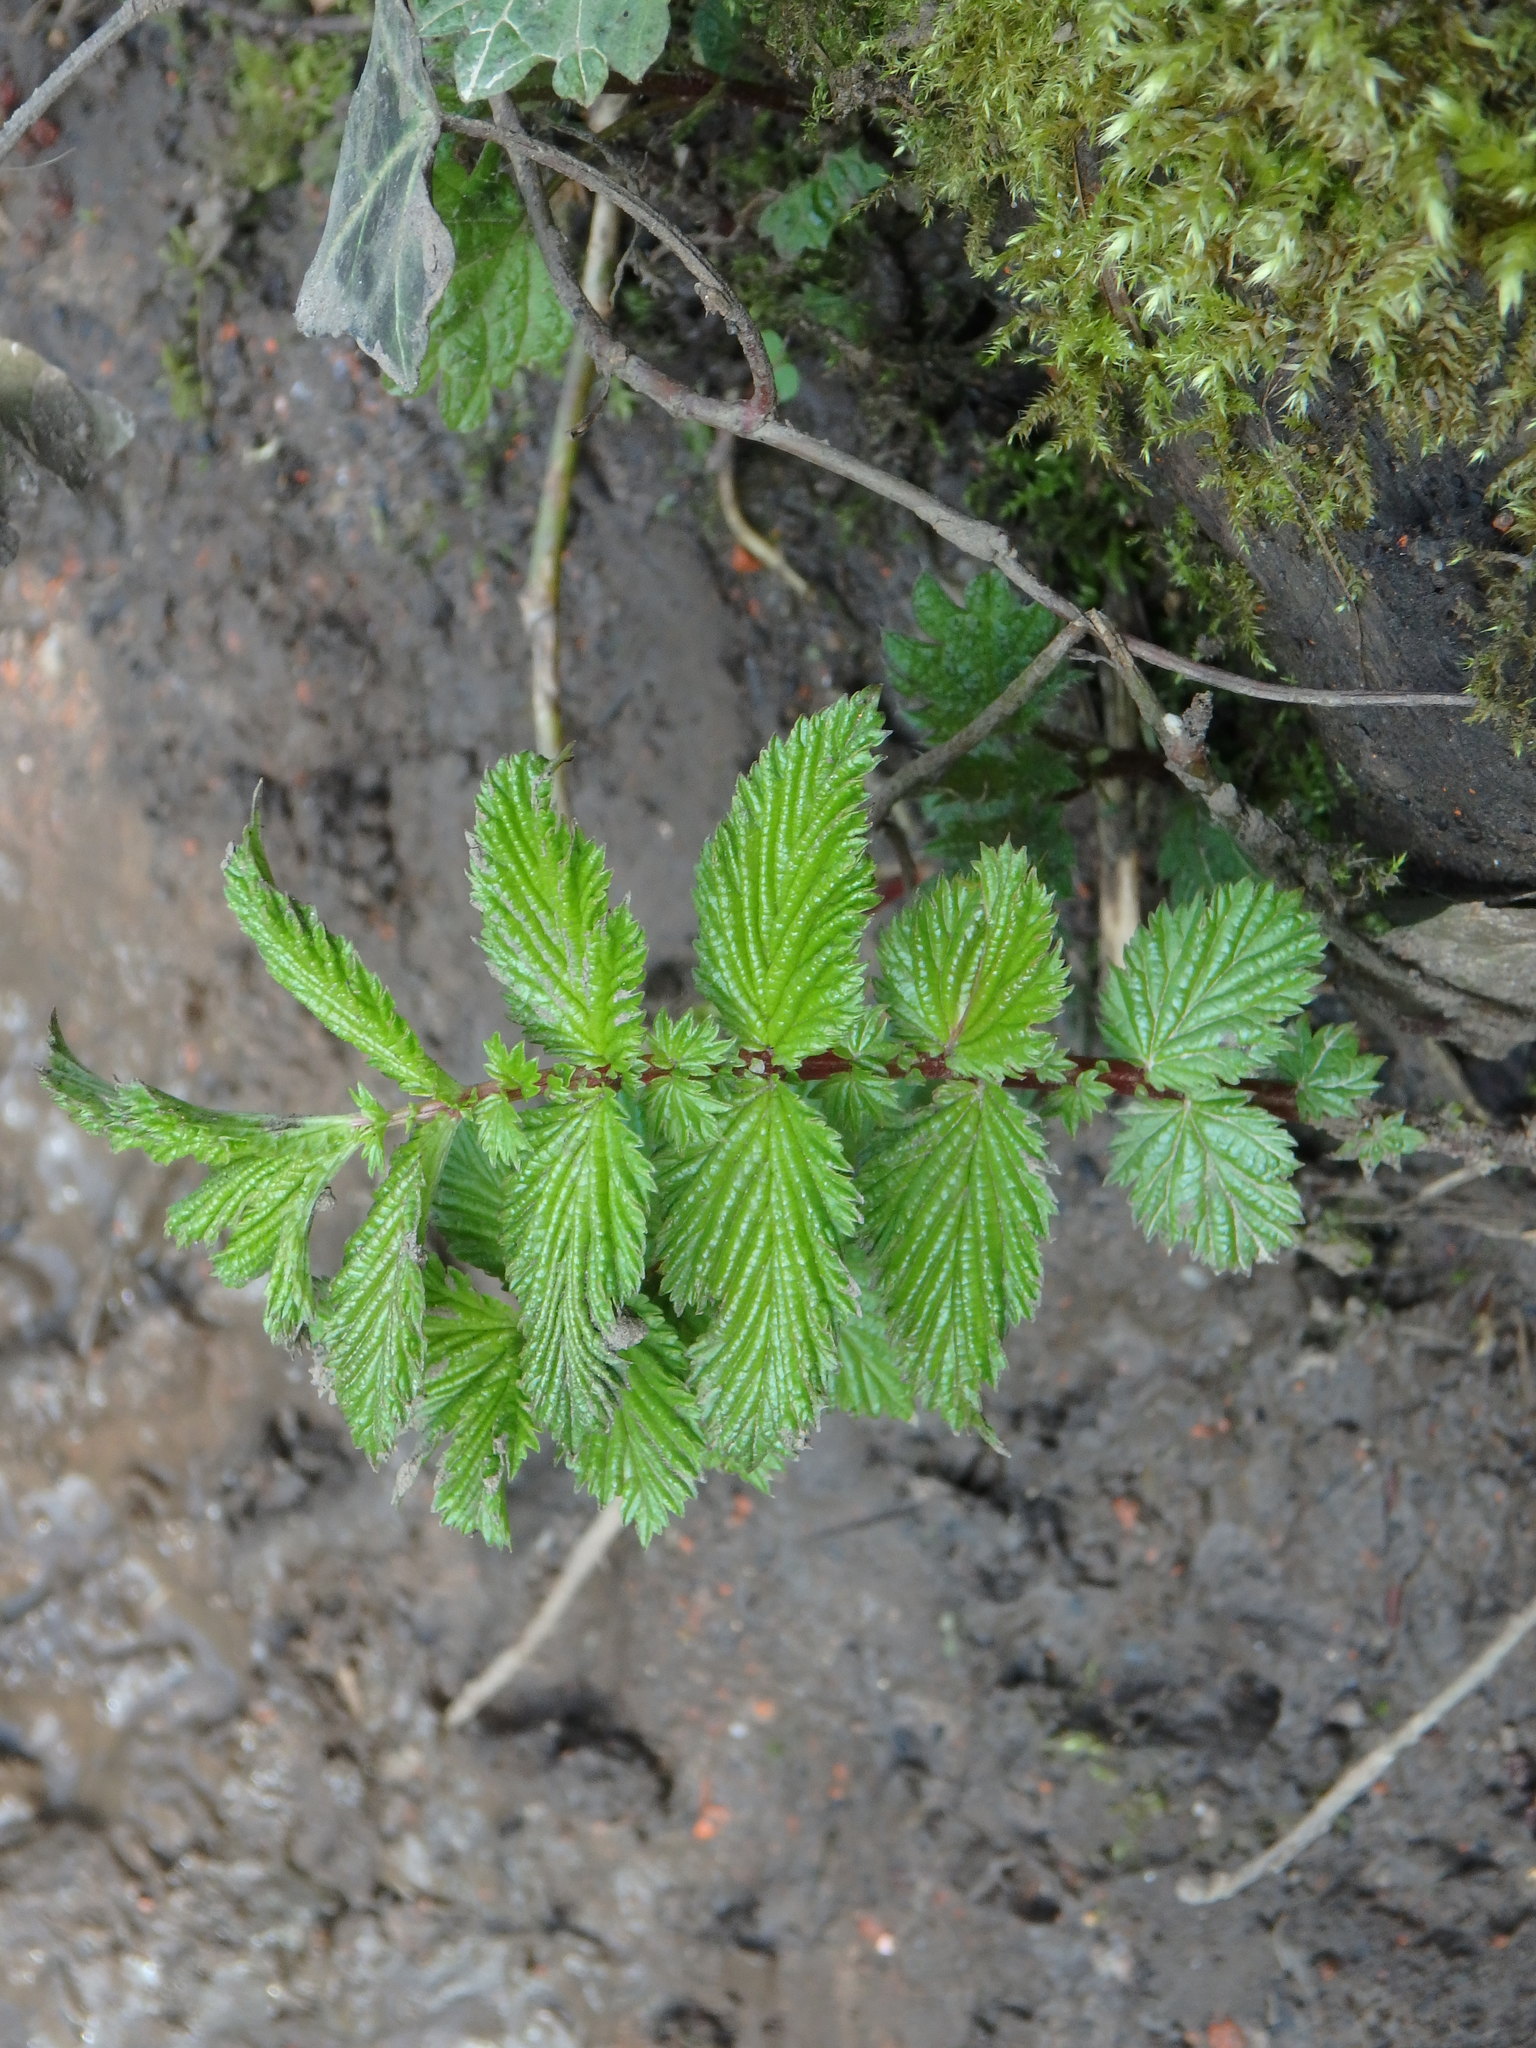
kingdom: Plantae
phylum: Tracheophyta
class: Magnoliopsida
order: Rosales
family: Rosaceae
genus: Filipendula
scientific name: Filipendula ulmaria
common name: Meadowsweet
